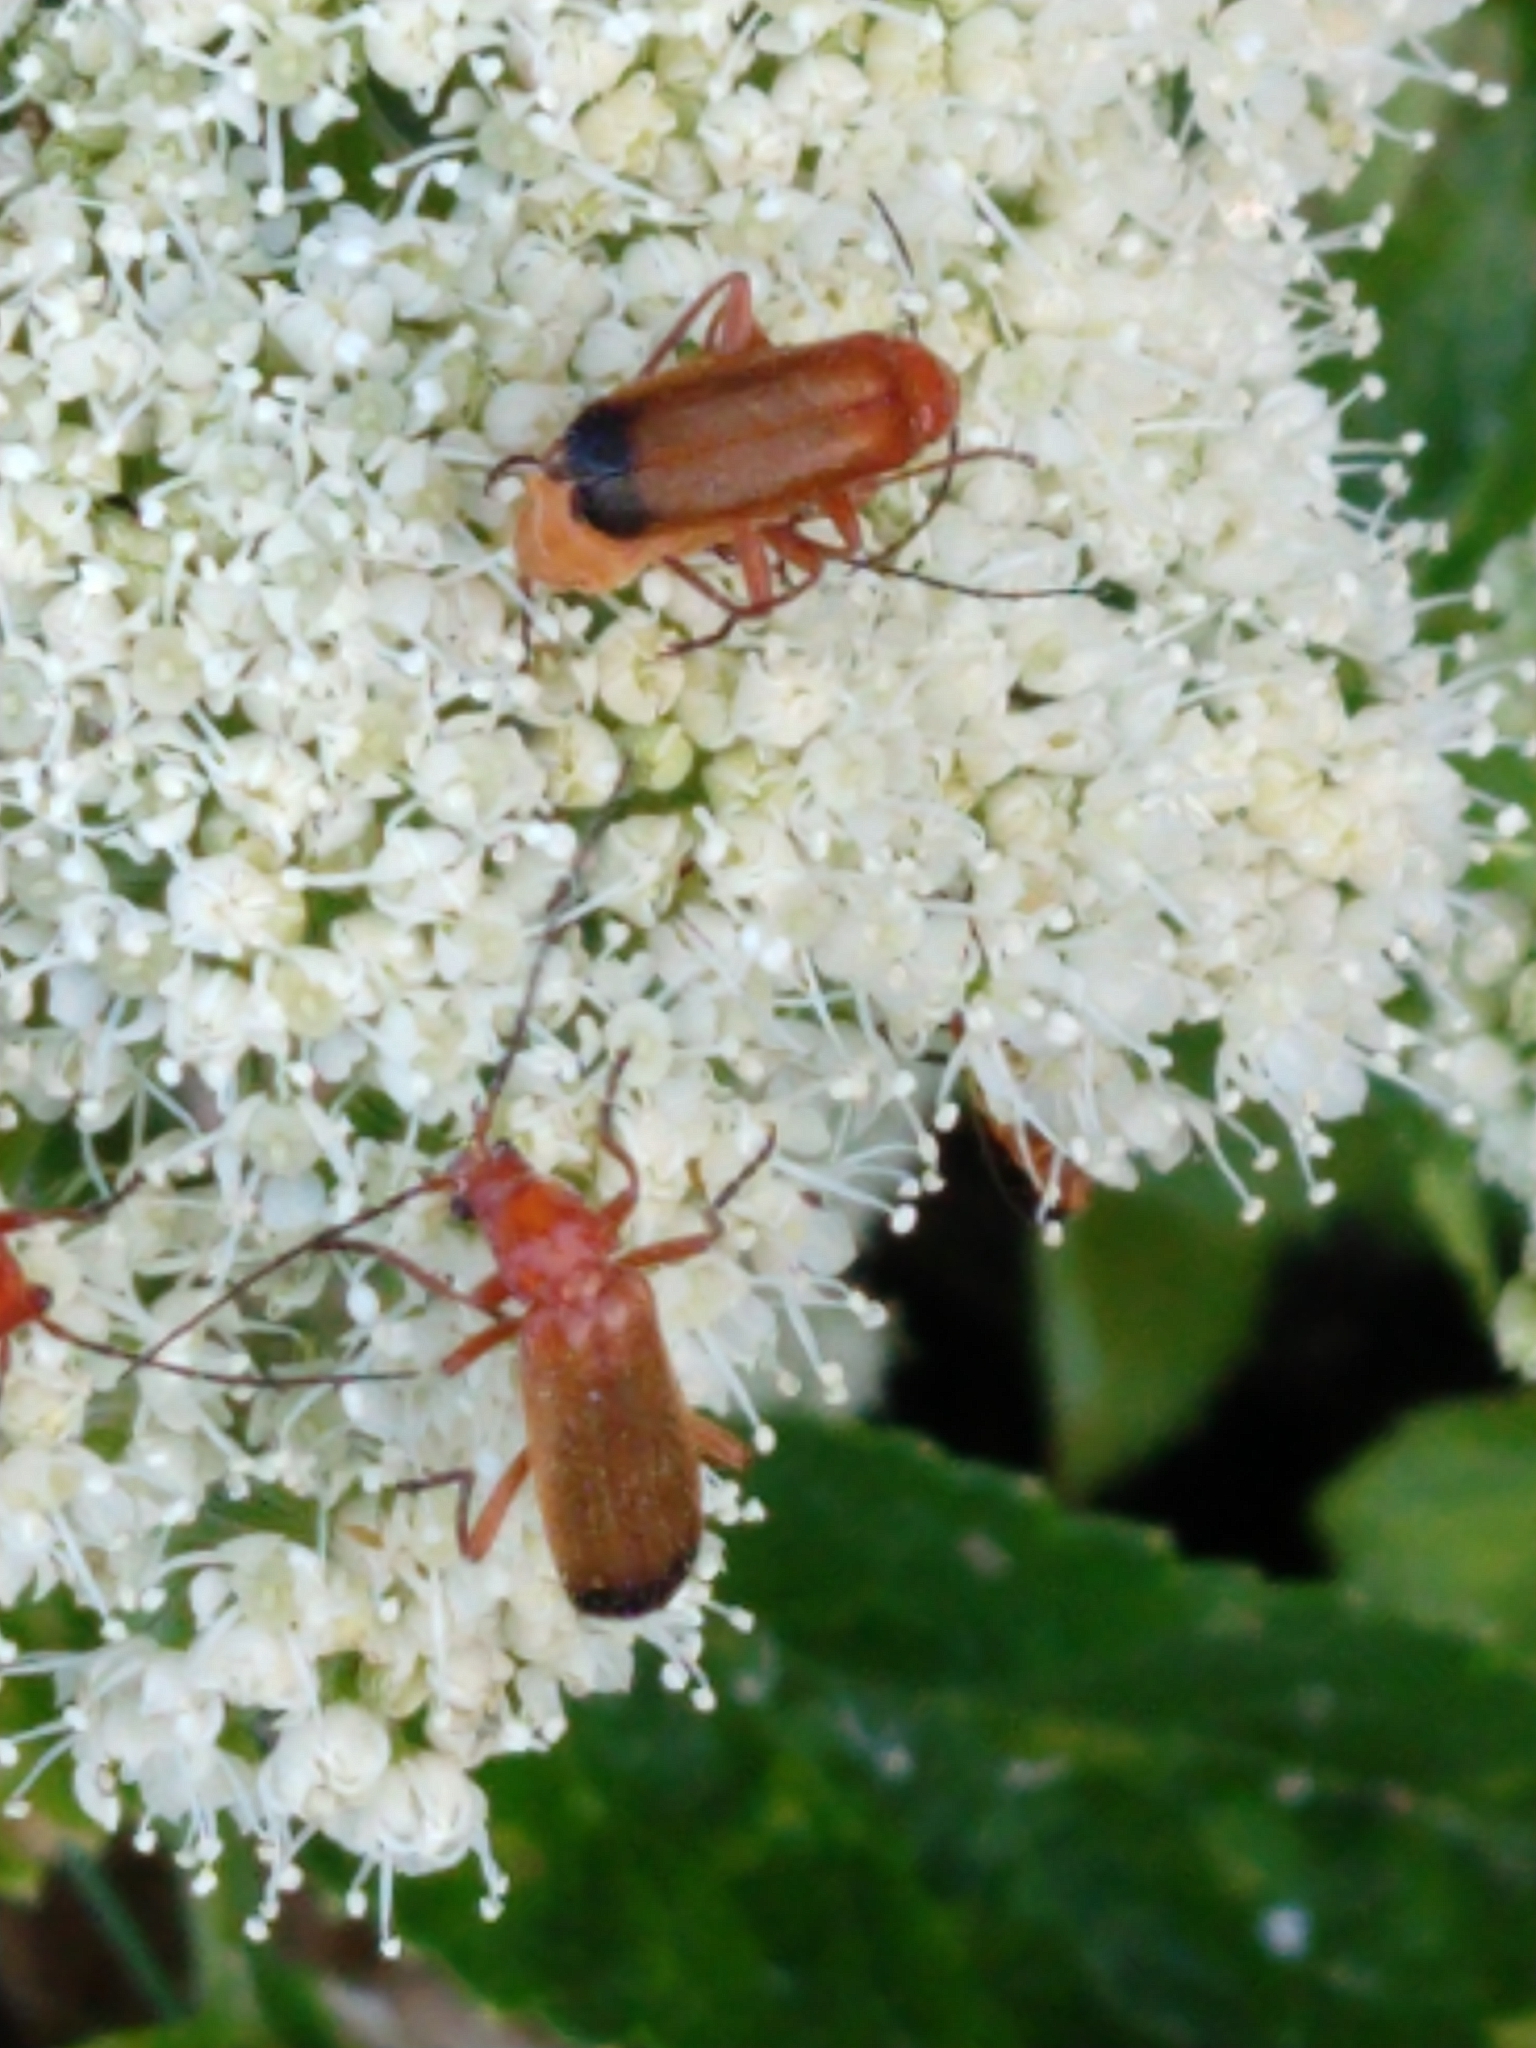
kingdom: Animalia
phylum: Arthropoda
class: Insecta
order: Coleoptera
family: Cantharidae
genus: Rhagonycha
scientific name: Rhagonycha fulva
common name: Common red soldier beetle
